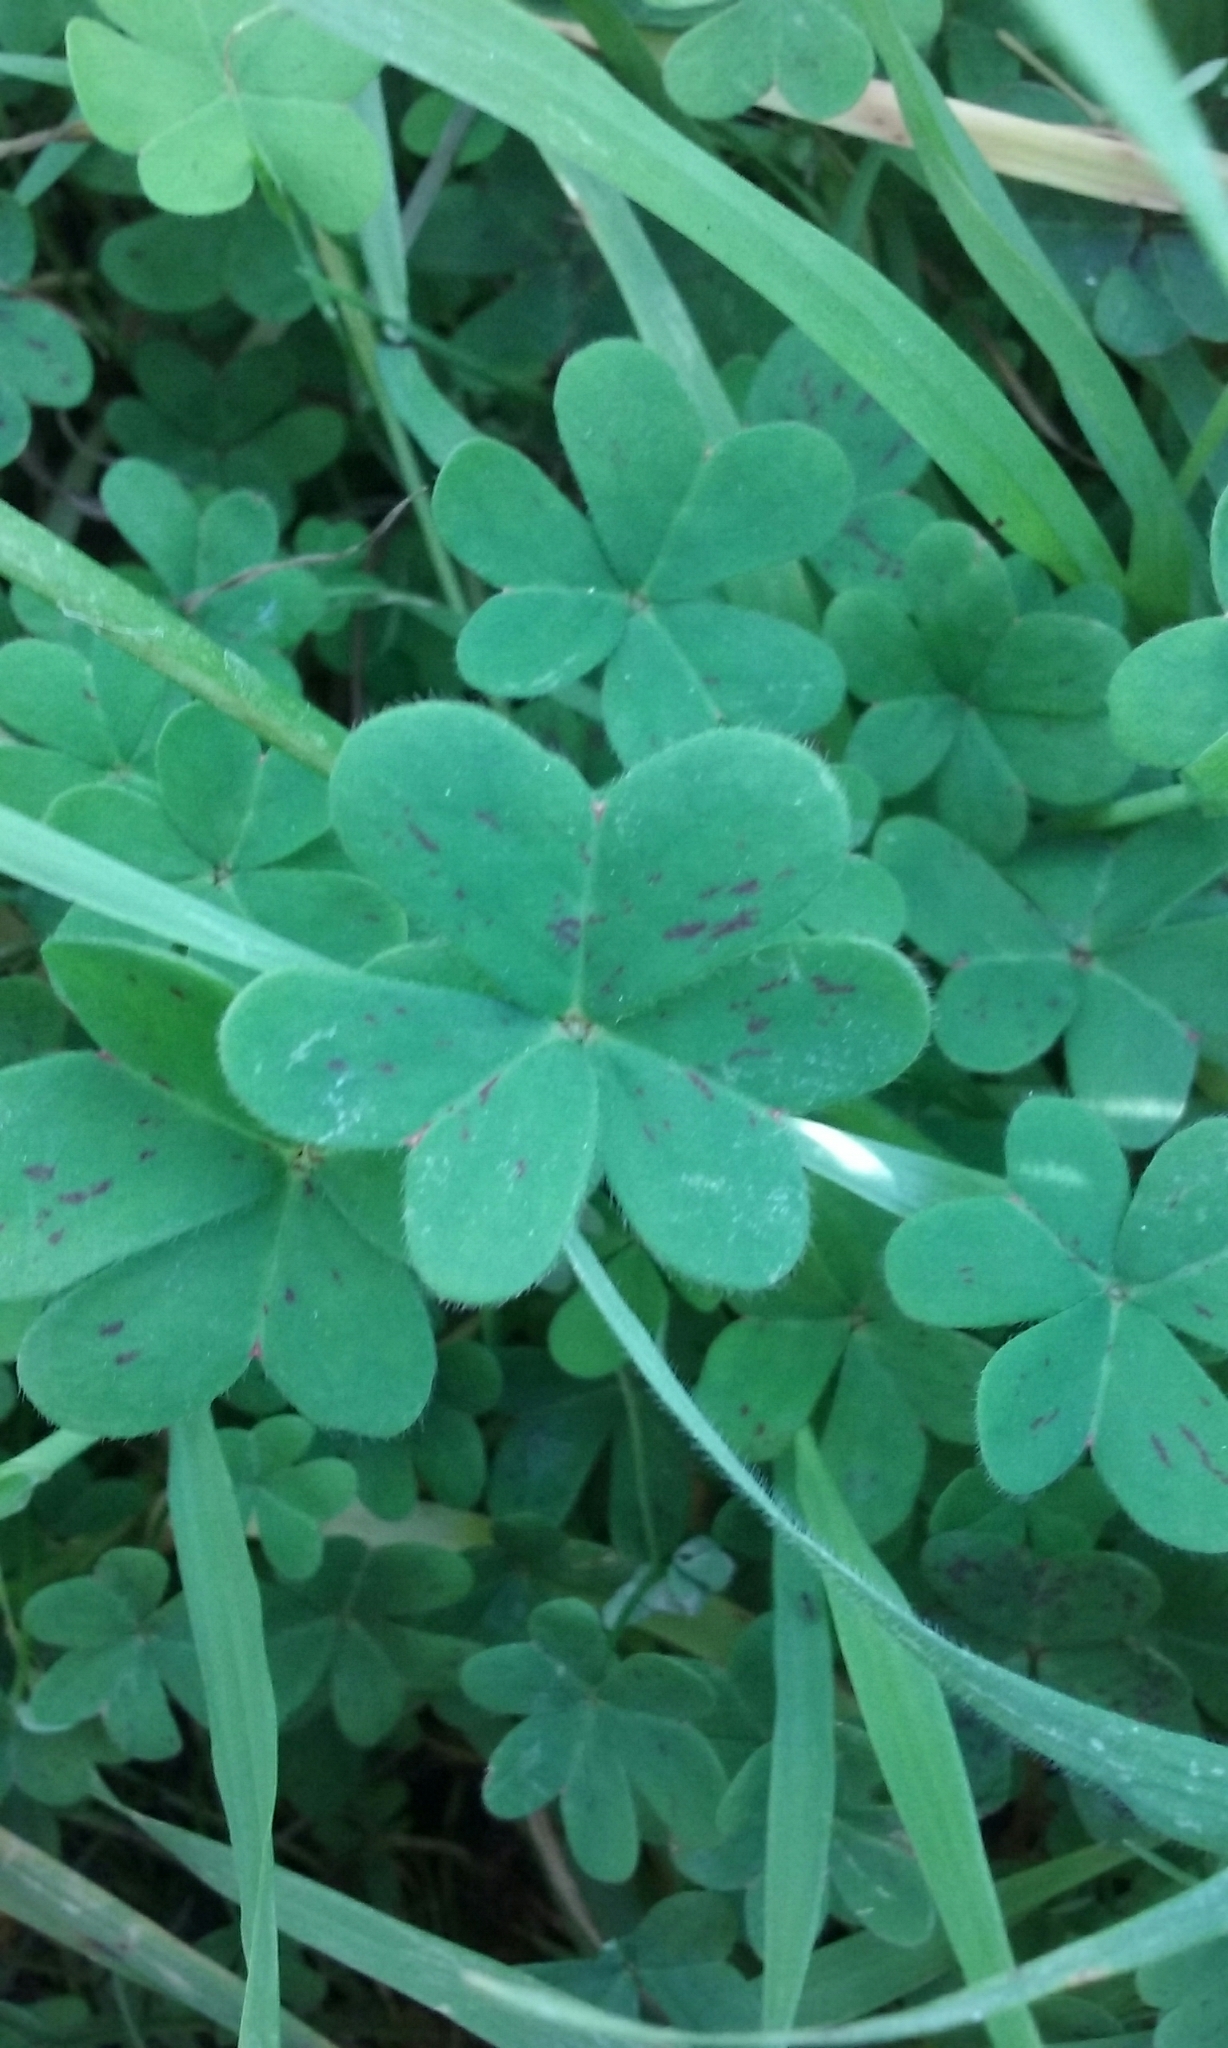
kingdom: Plantae
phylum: Tracheophyta
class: Magnoliopsida
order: Oxalidales
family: Oxalidaceae
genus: Oxalis
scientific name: Oxalis pes-caprae
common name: Bermuda-buttercup
